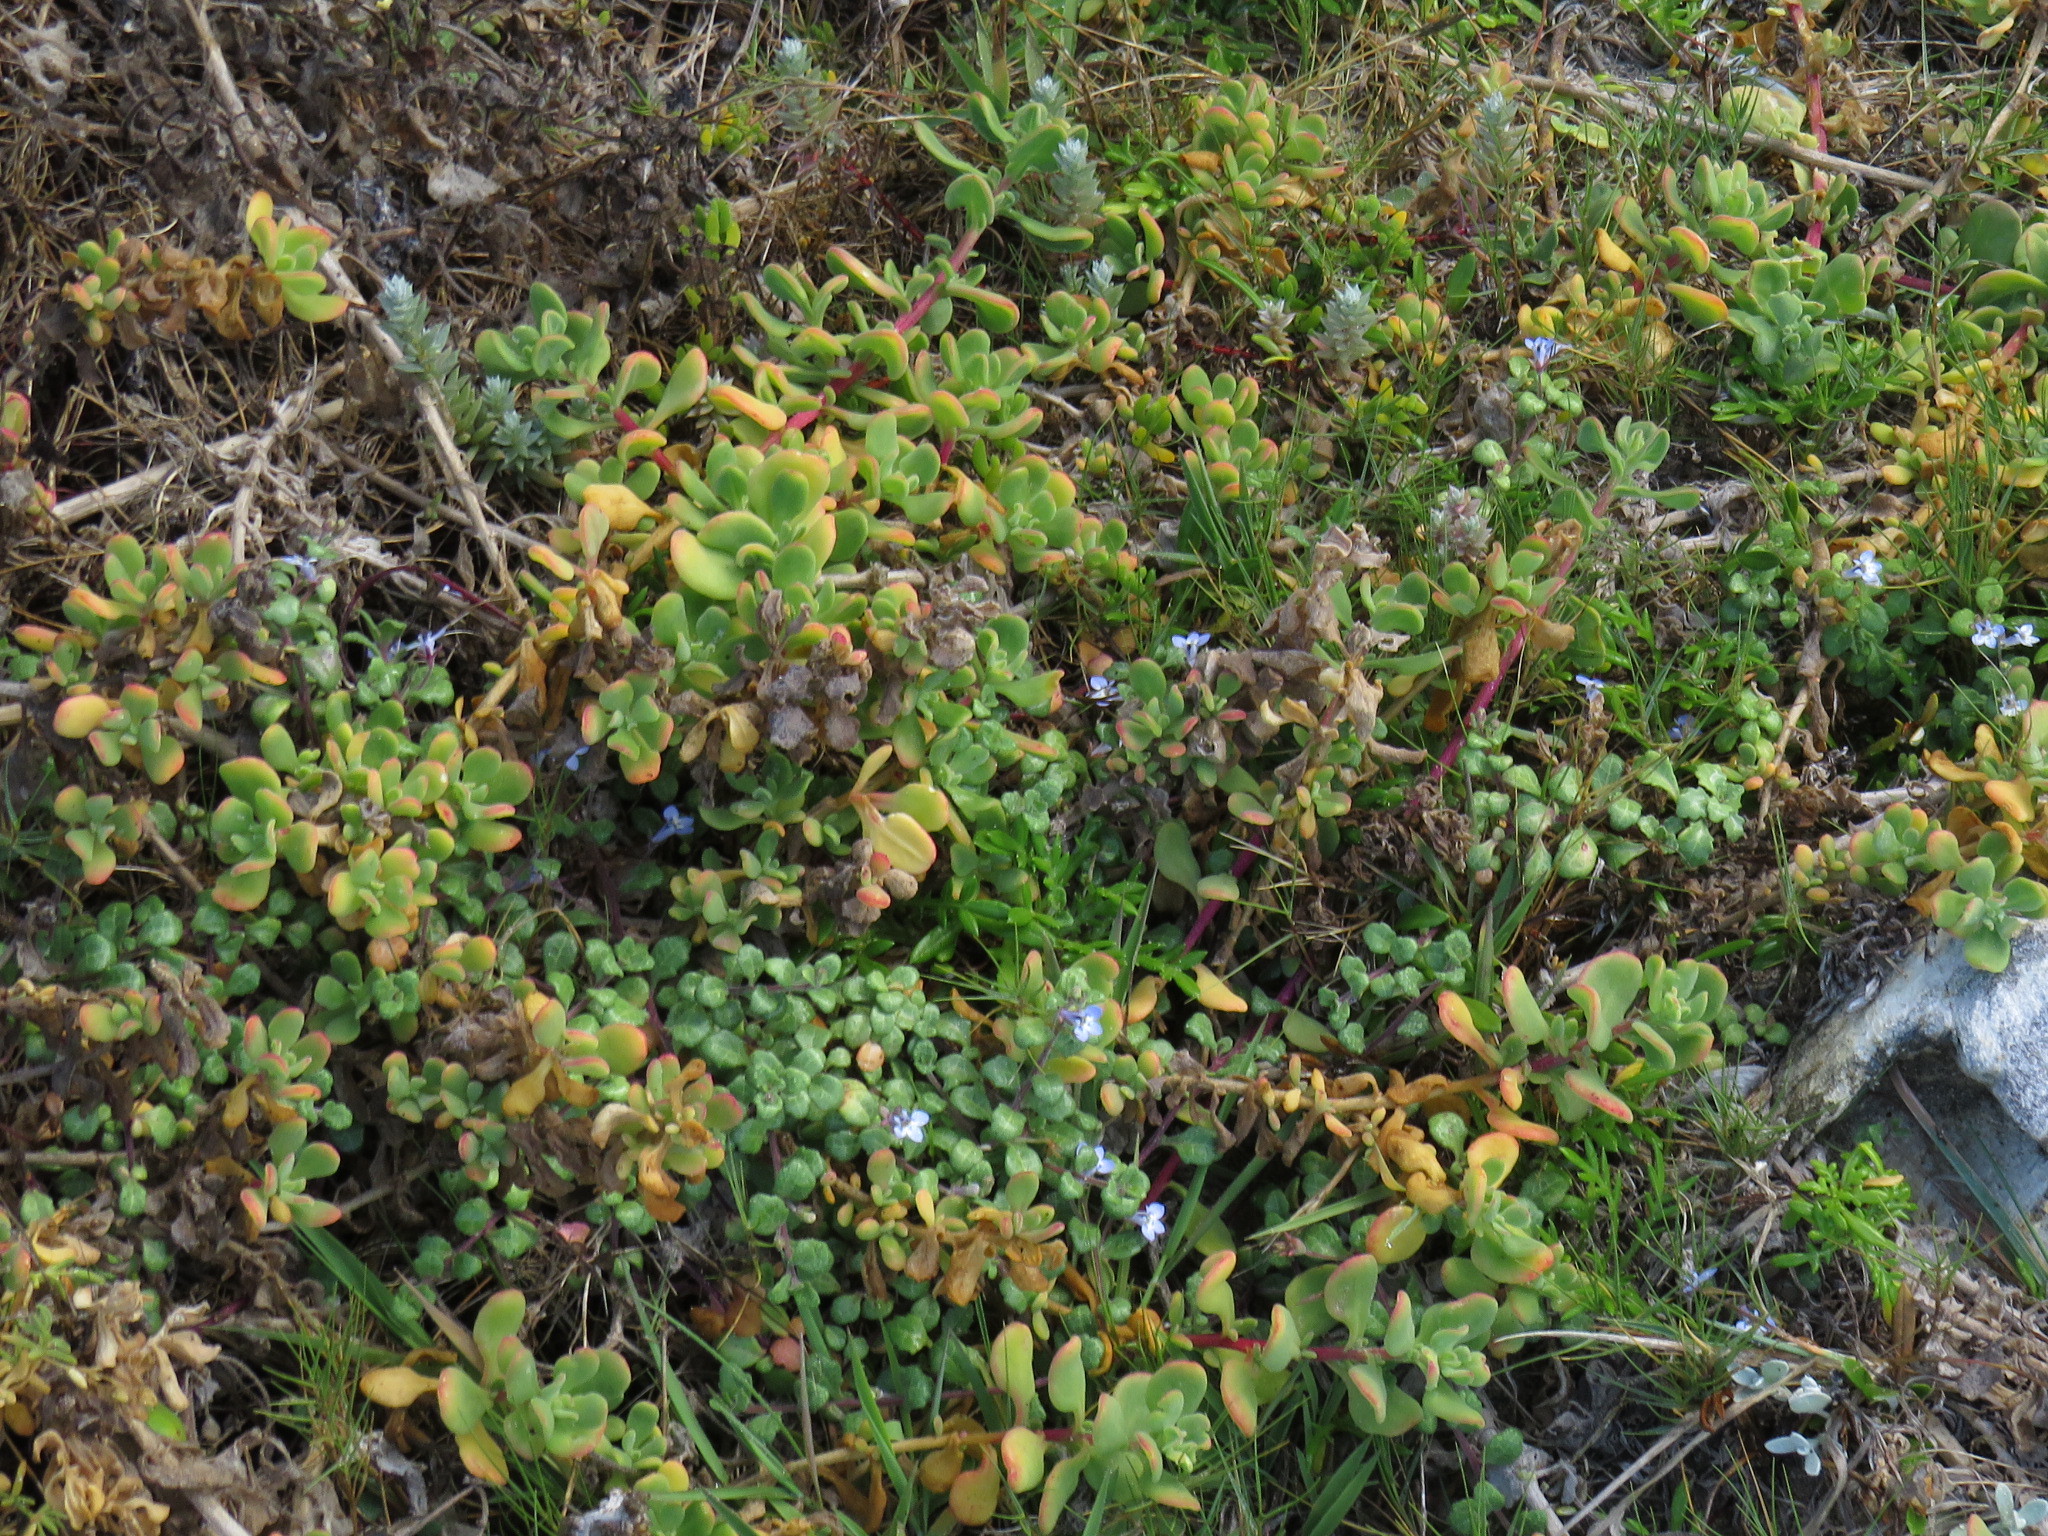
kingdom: Plantae
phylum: Tracheophyta
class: Magnoliopsida
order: Asterales
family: Campanulaceae
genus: Lobelia
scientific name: Lobelia boivinii
